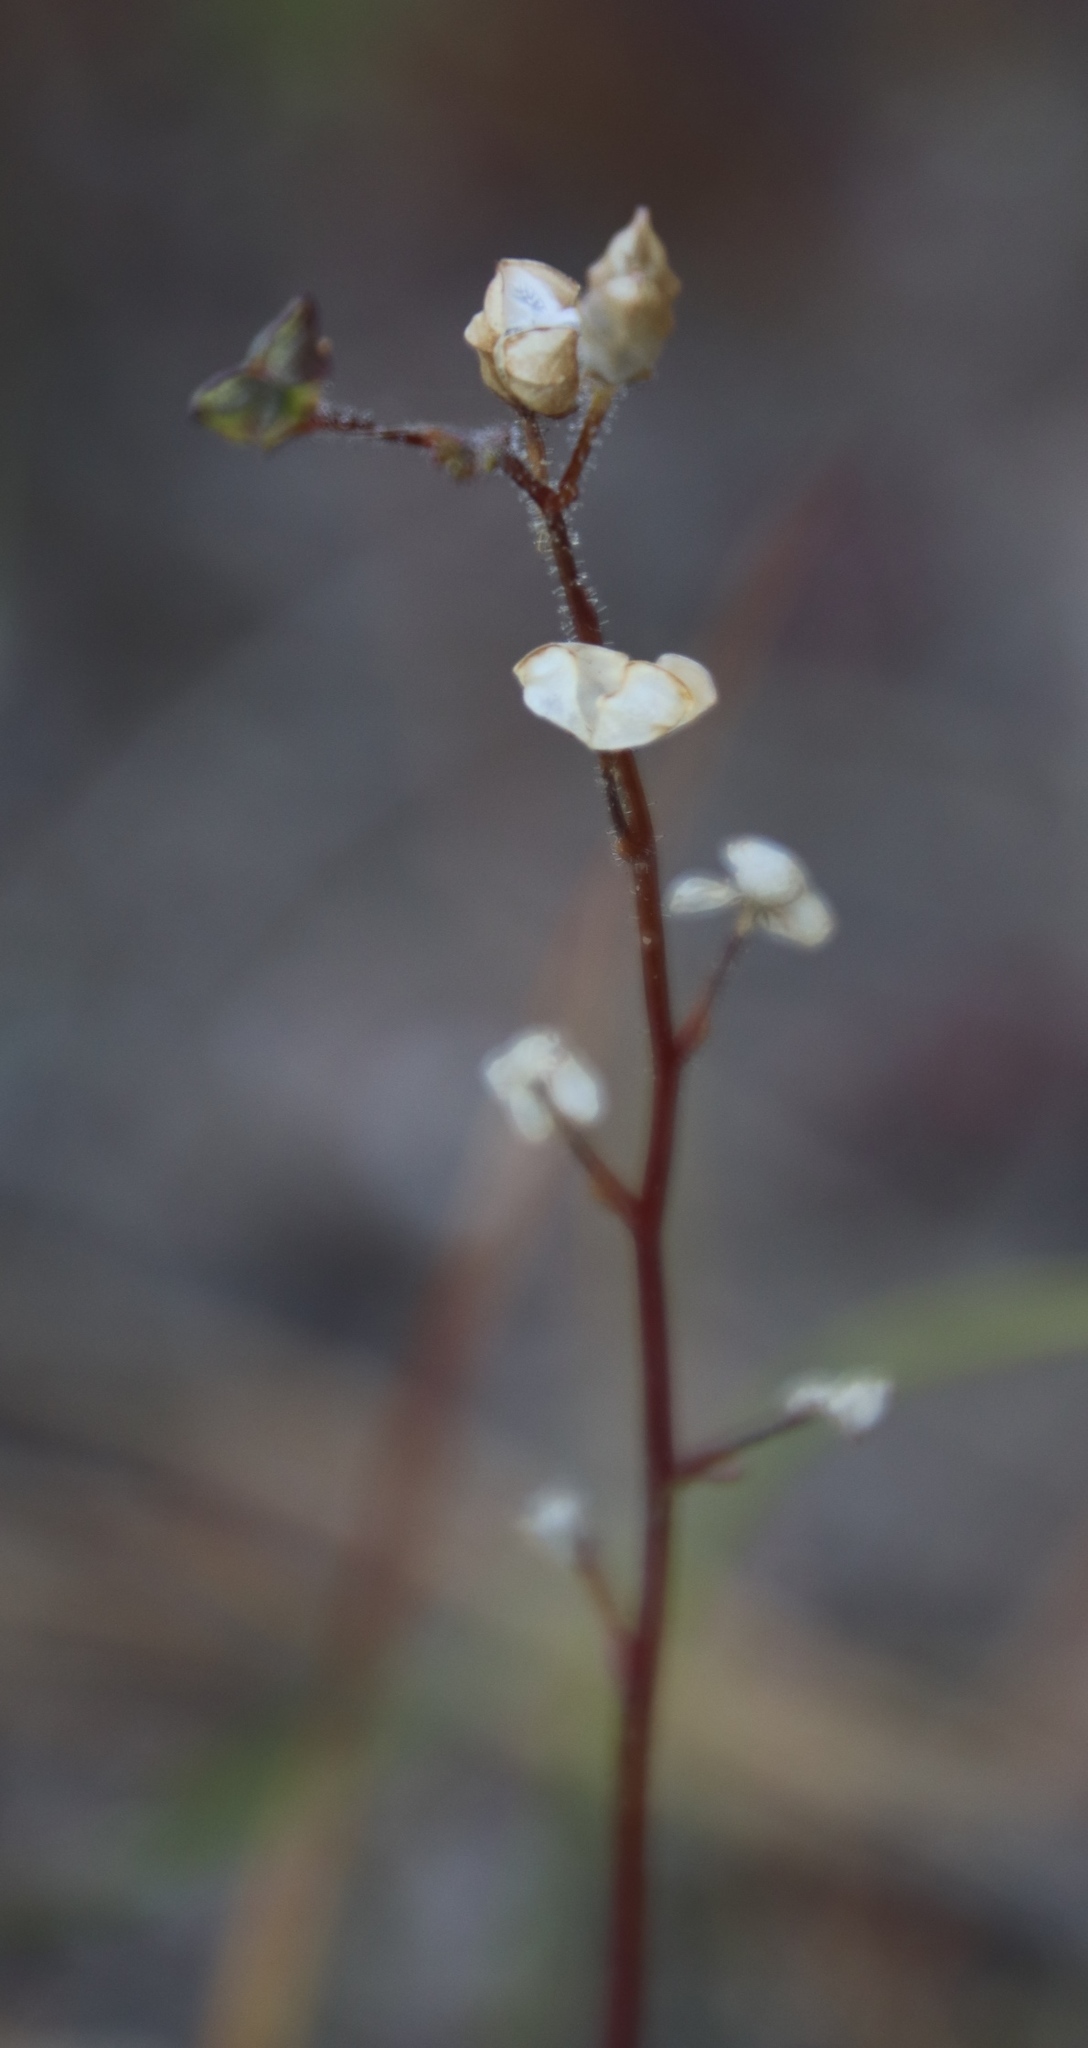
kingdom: Plantae
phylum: Tracheophyta
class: Magnoliopsida
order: Lamiales
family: Scrophulariaceae
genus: Nemesia
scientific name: Nemesia pinnata
